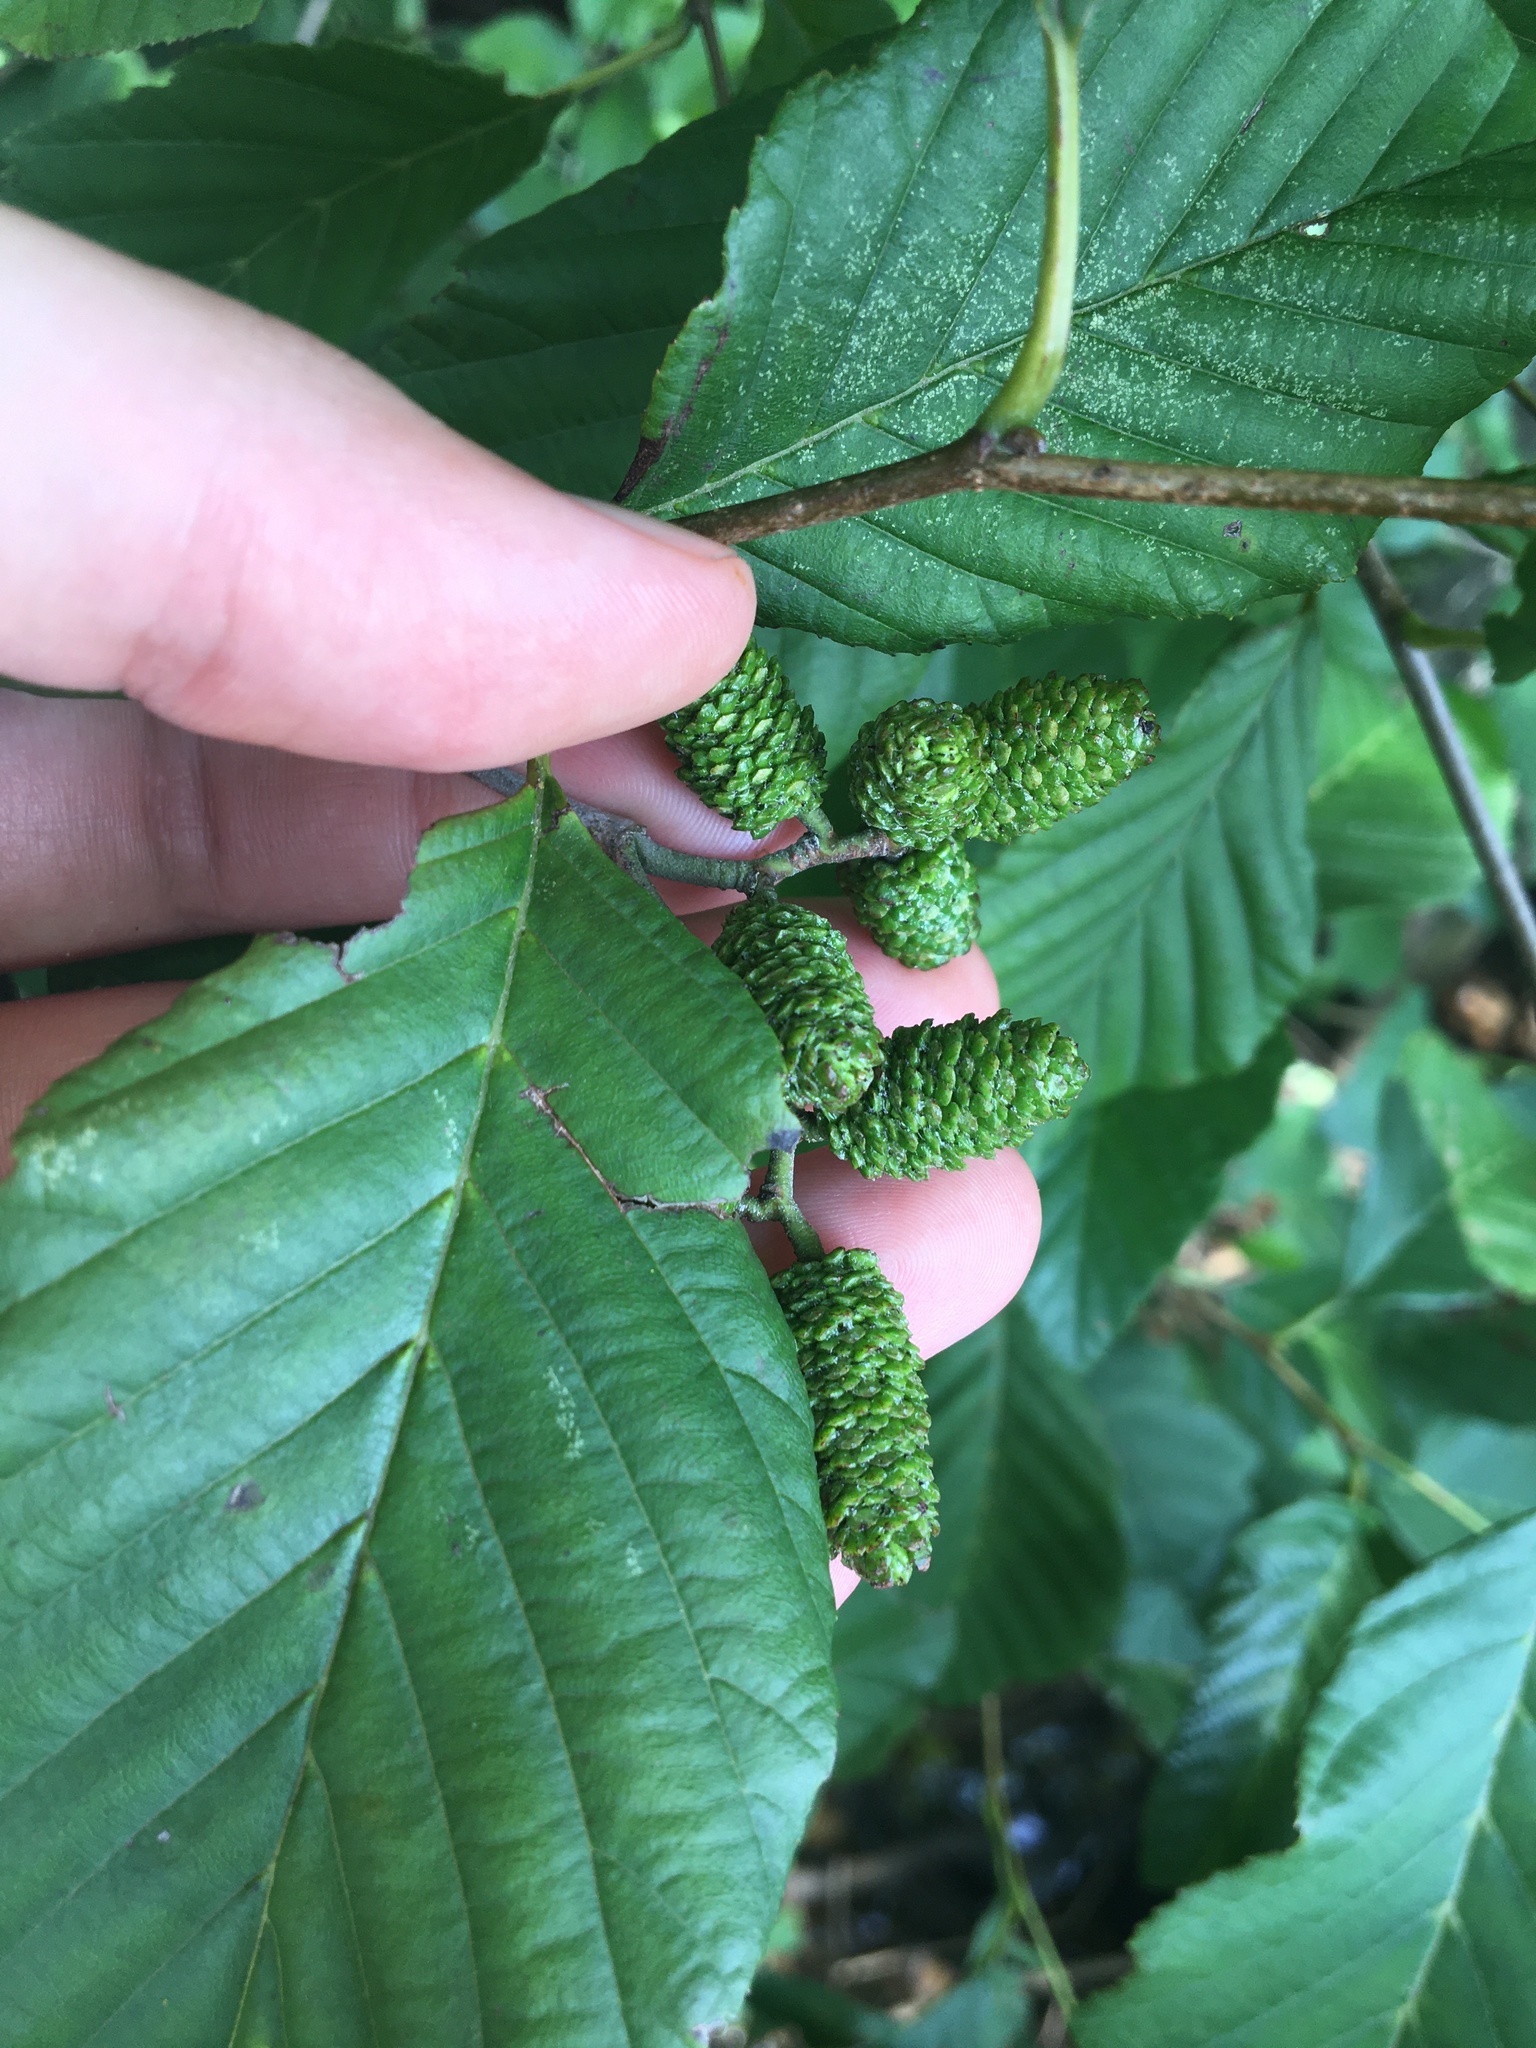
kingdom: Plantae
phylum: Tracheophyta
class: Magnoliopsida
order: Fagales
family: Betulaceae
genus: Alnus
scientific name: Alnus serrulata
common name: Hazel alder
